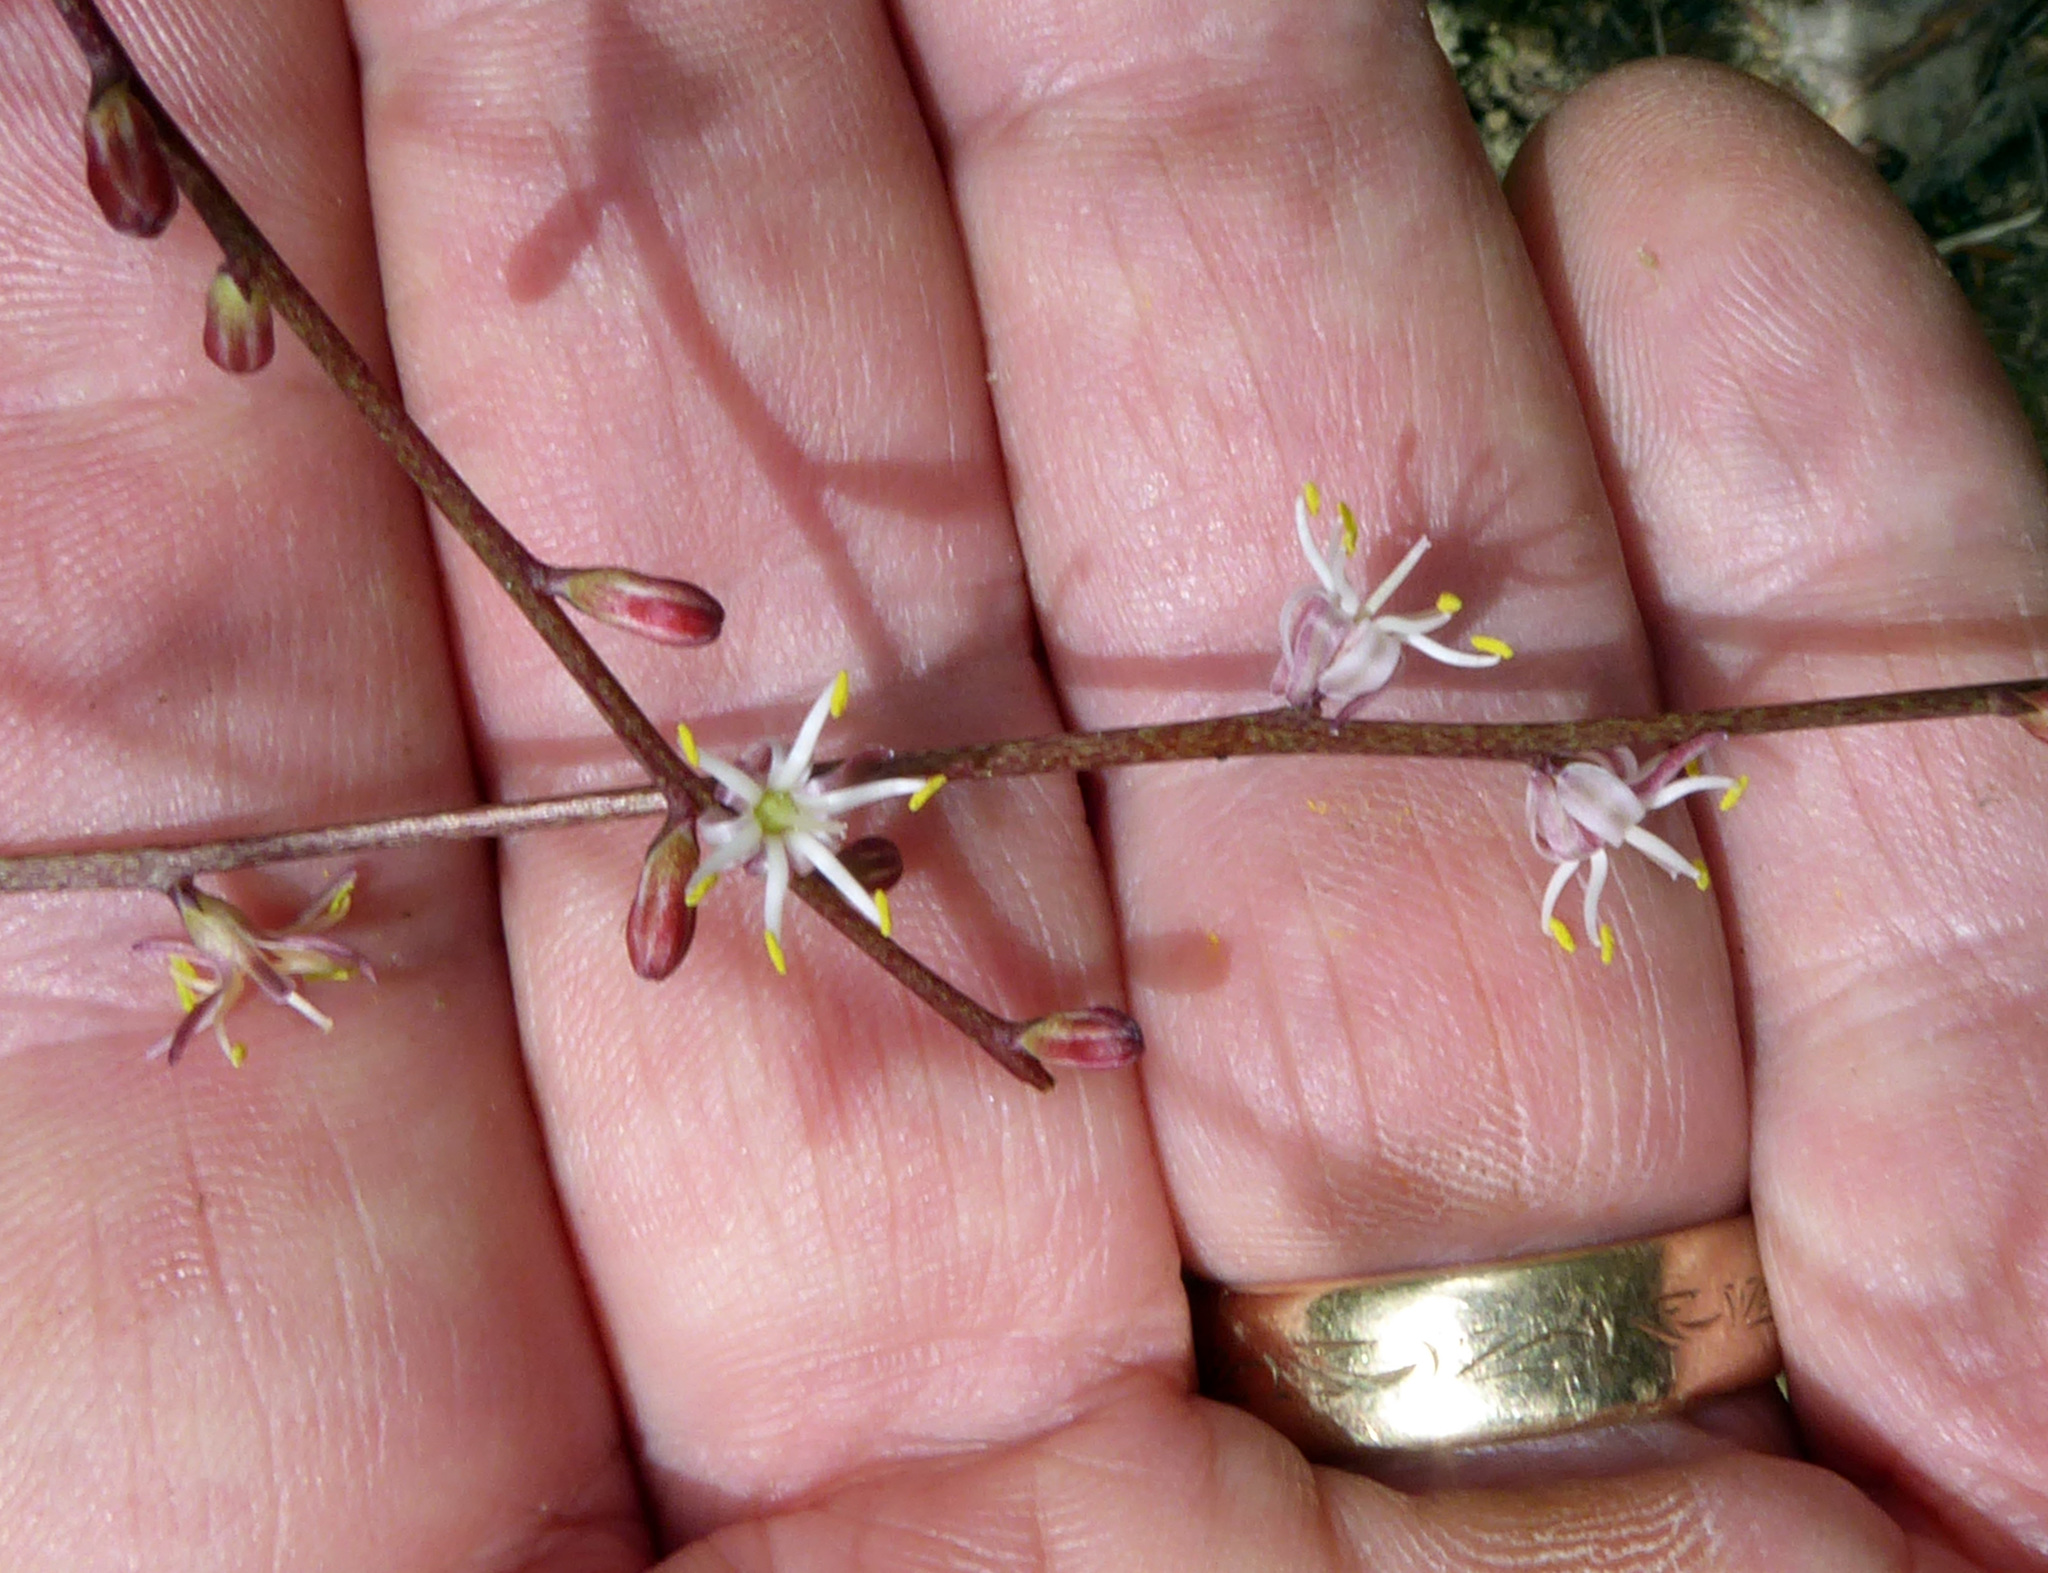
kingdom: Plantae
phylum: Tracheophyta
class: Liliopsida
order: Asparagales
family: Asparagaceae
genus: Cordyline
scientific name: Cordyline pumilio
